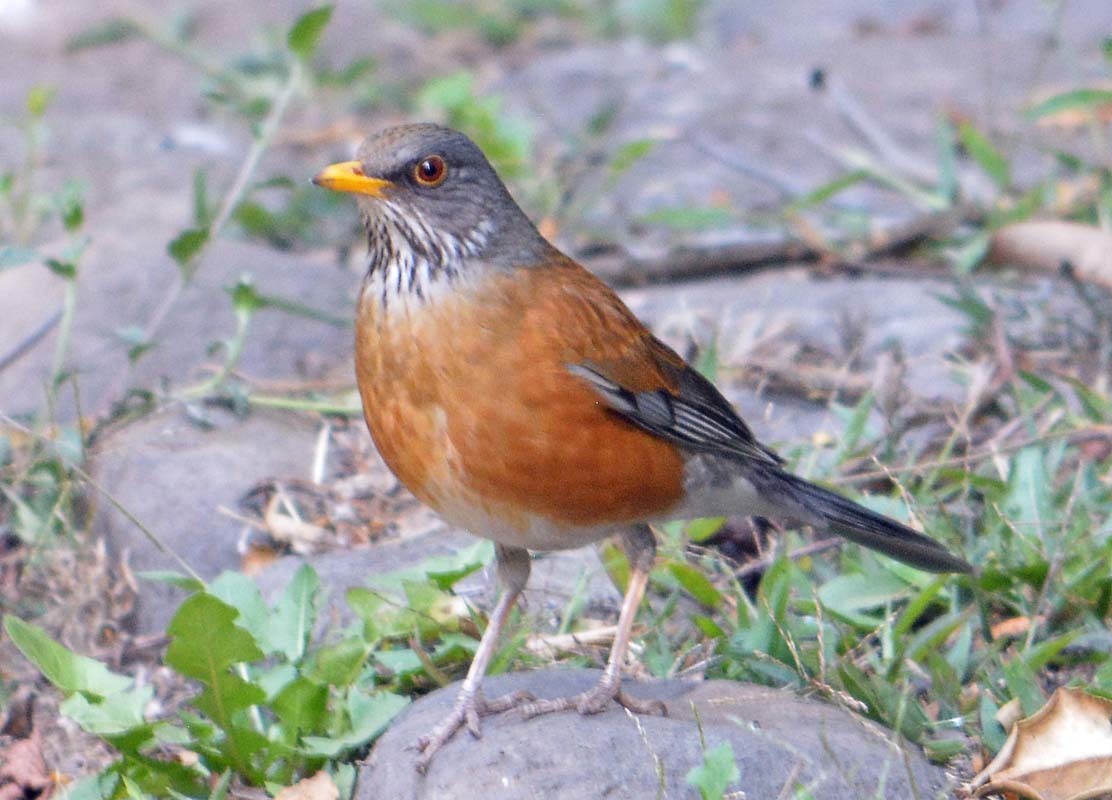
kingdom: Animalia
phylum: Chordata
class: Aves
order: Passeriformes
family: Turdidae
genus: Turdus
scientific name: Turdus rufopalliatus
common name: Rufous-backed robin
